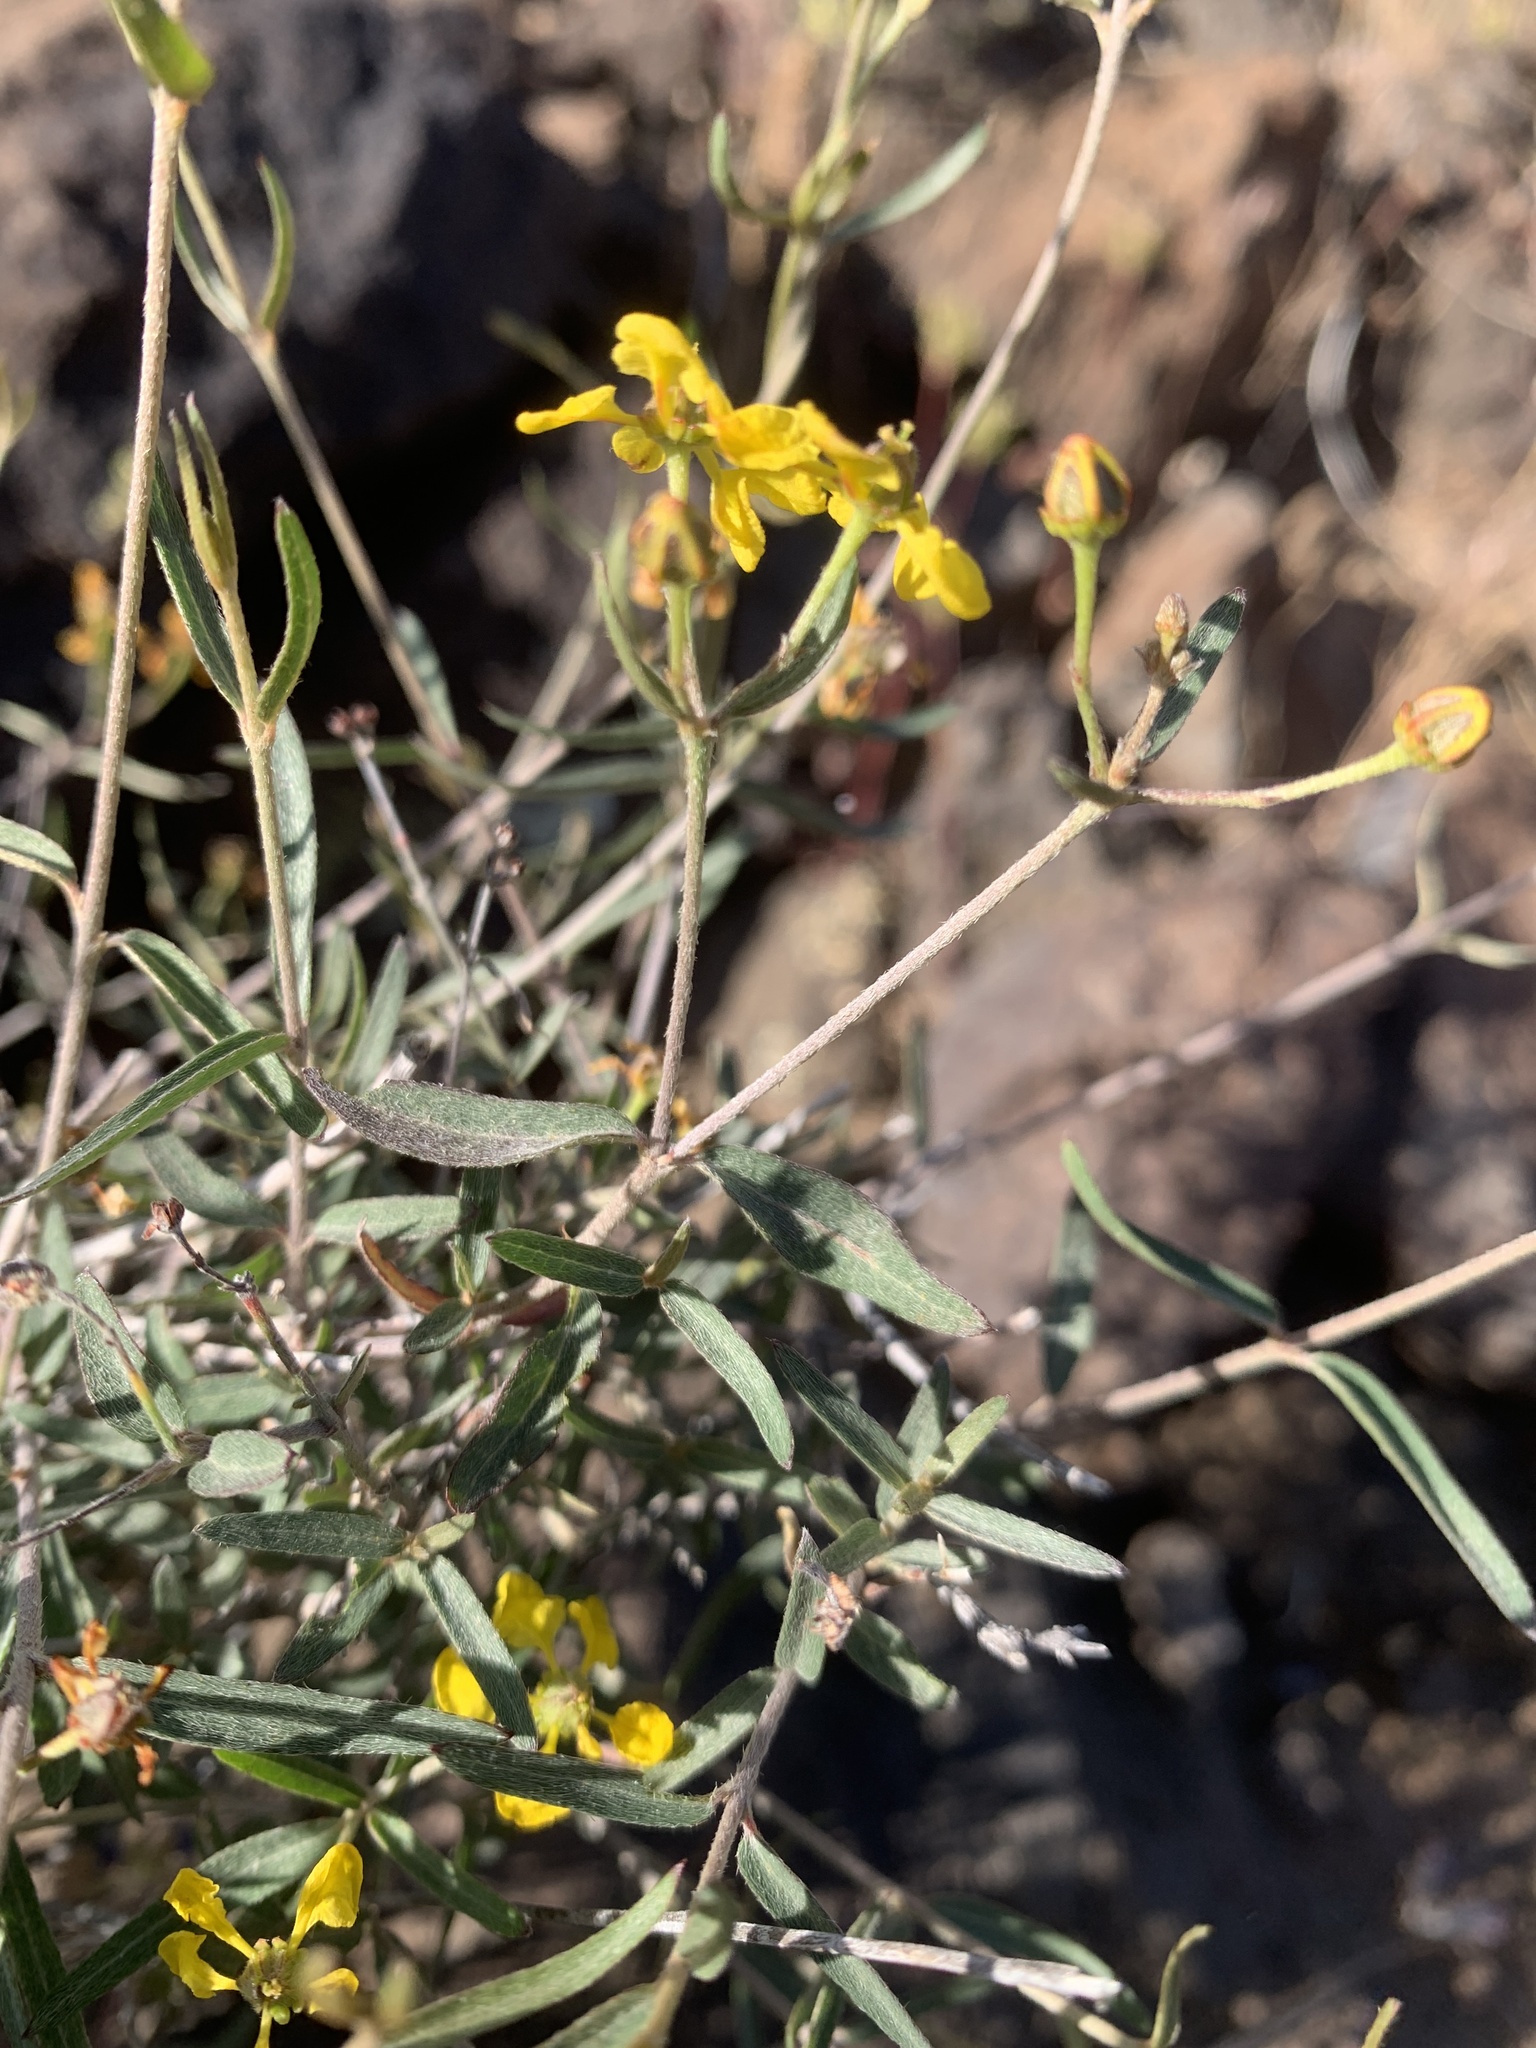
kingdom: Plantae
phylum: Tracheophyta
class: Magnoliopsida
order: Malpighiales
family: Malpighiaceae
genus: Cottsia
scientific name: Cottsia gracilis
